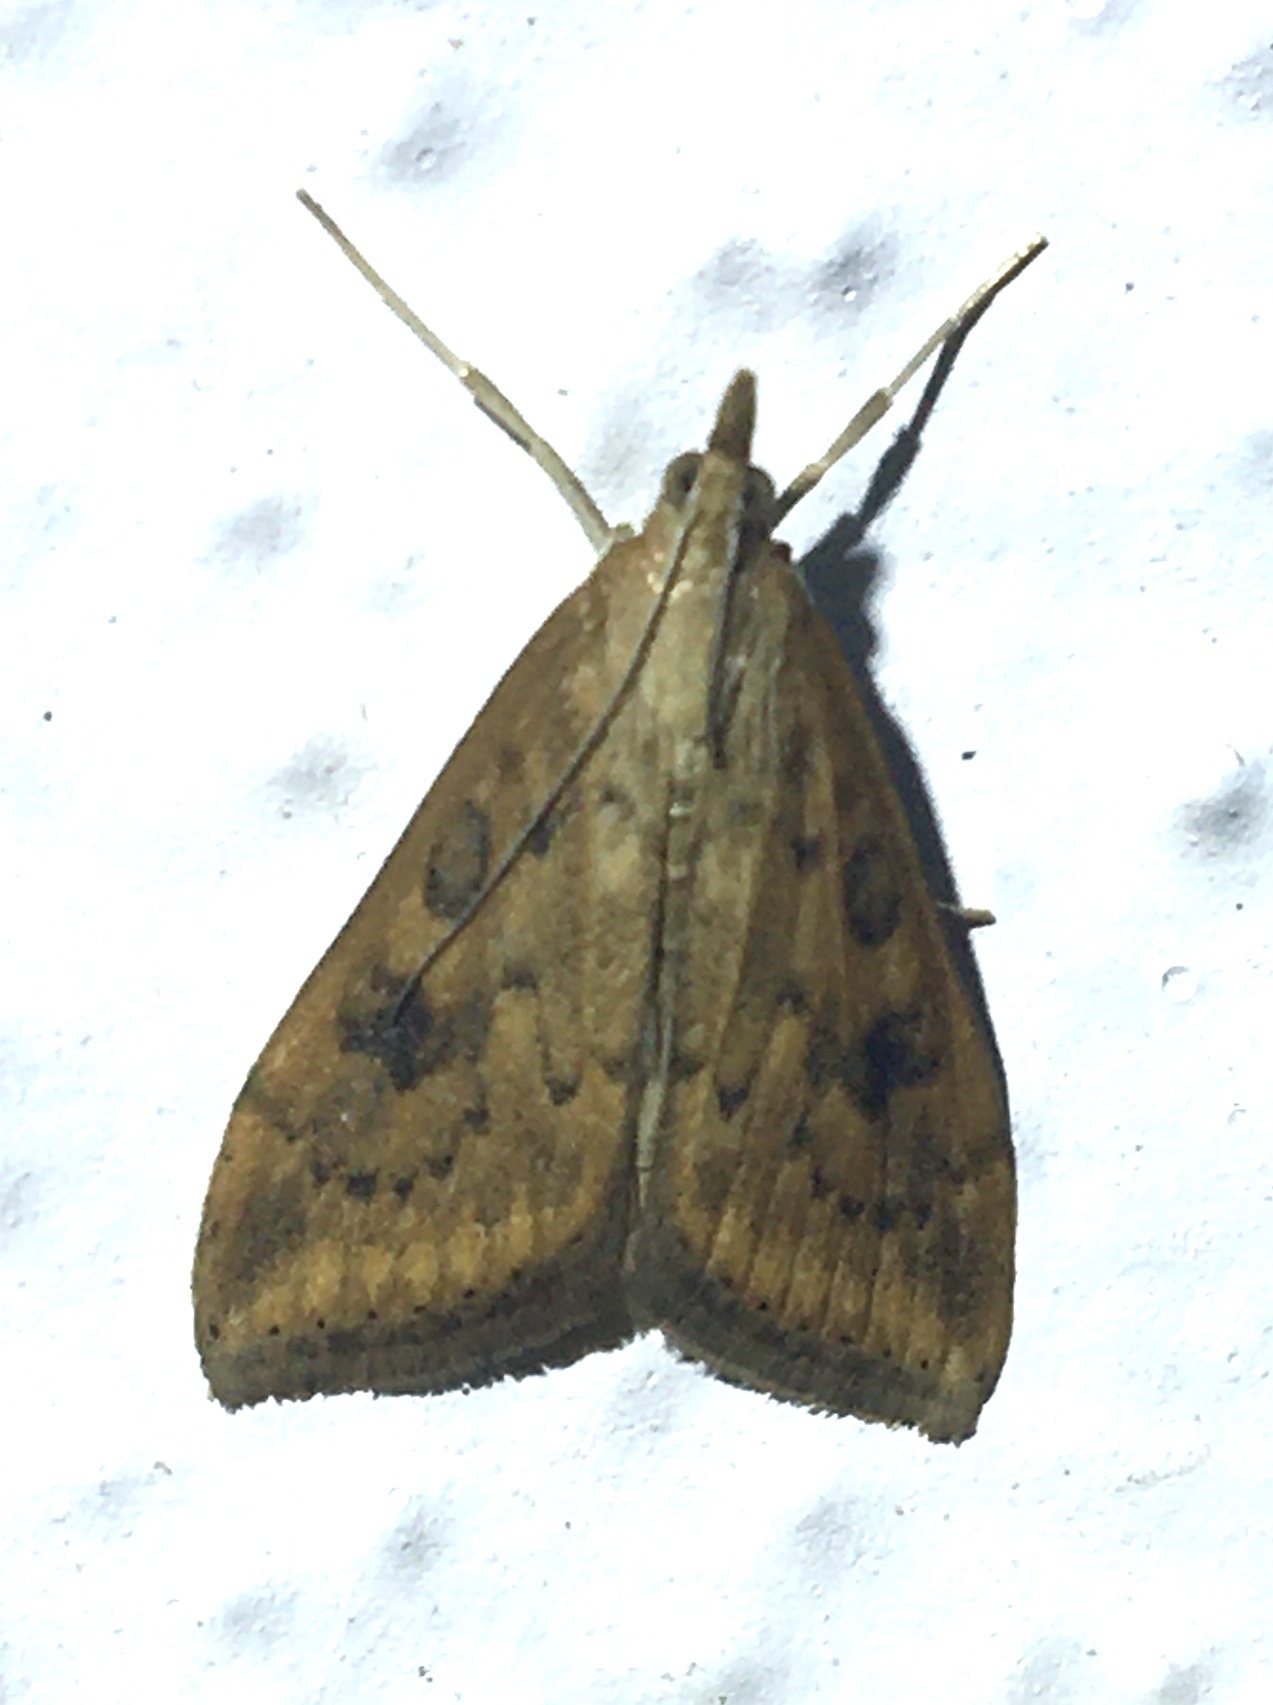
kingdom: Animalia
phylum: Arthropoda
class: Insecta
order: Lepidoptera
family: Crambidae
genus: Udea
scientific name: Udea ferrugalis
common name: Rusty dot
